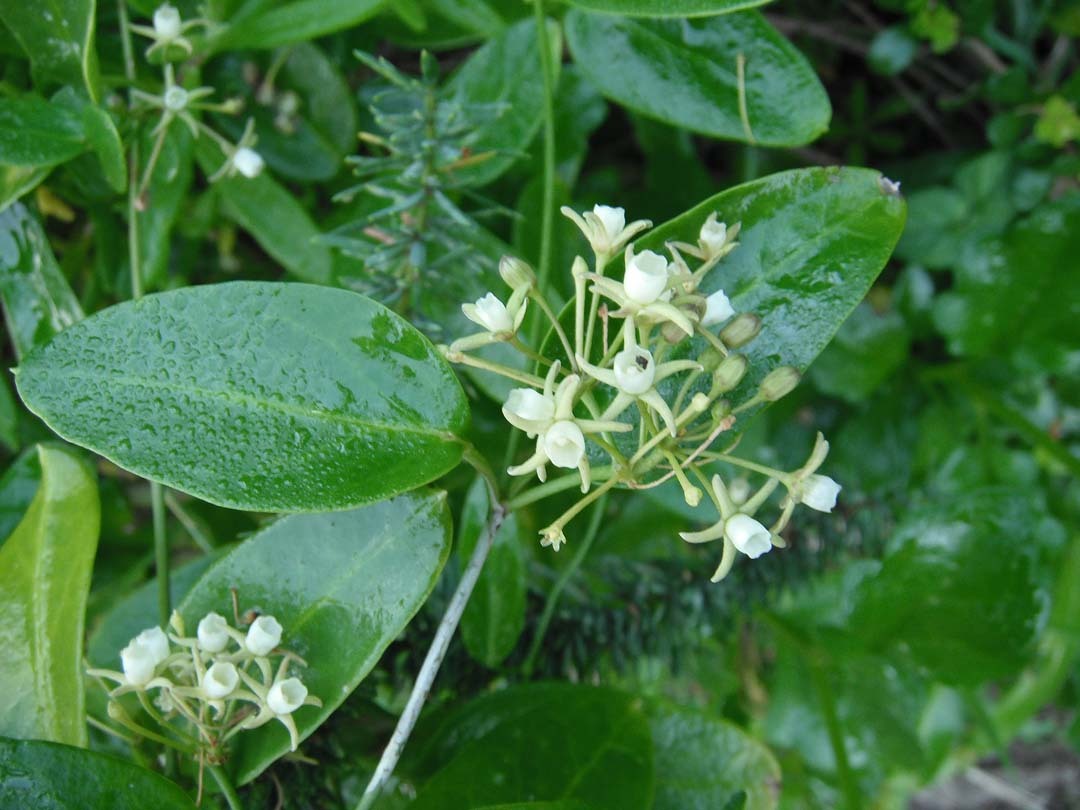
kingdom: Plantae
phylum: Tracheophyta
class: Magnoliopsida
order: Gentianales
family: Apocynaceae
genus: Cynanchum
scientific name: Cynanchum ellipticum
